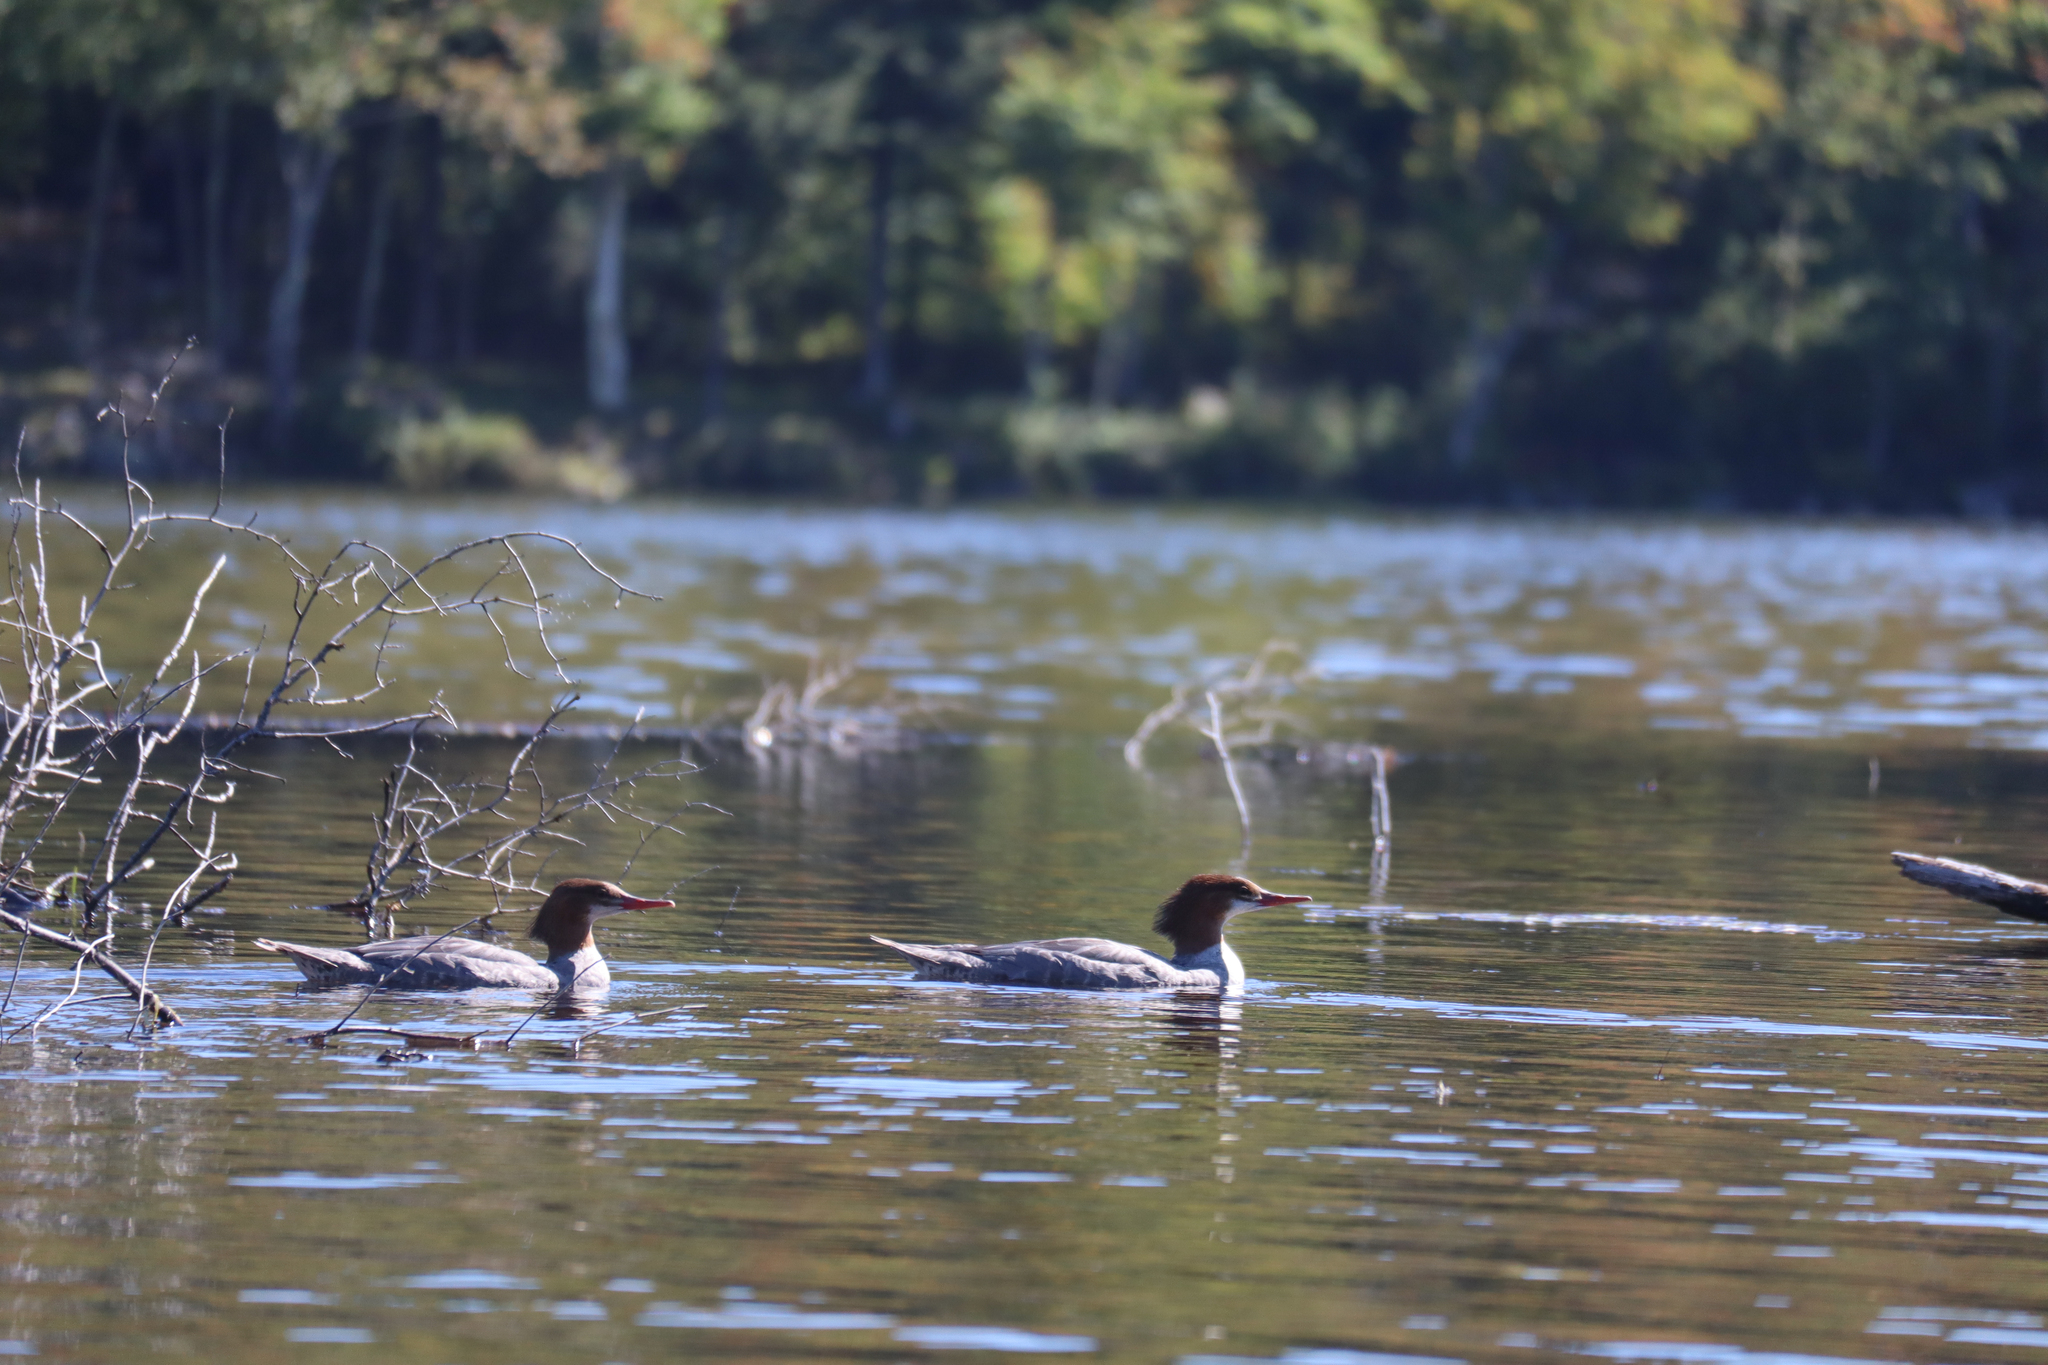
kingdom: Animalia
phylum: Chordata
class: Aves
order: Anseriformes
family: Anatidae
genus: Mergus
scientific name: Mergus merganser
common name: Common merganser
